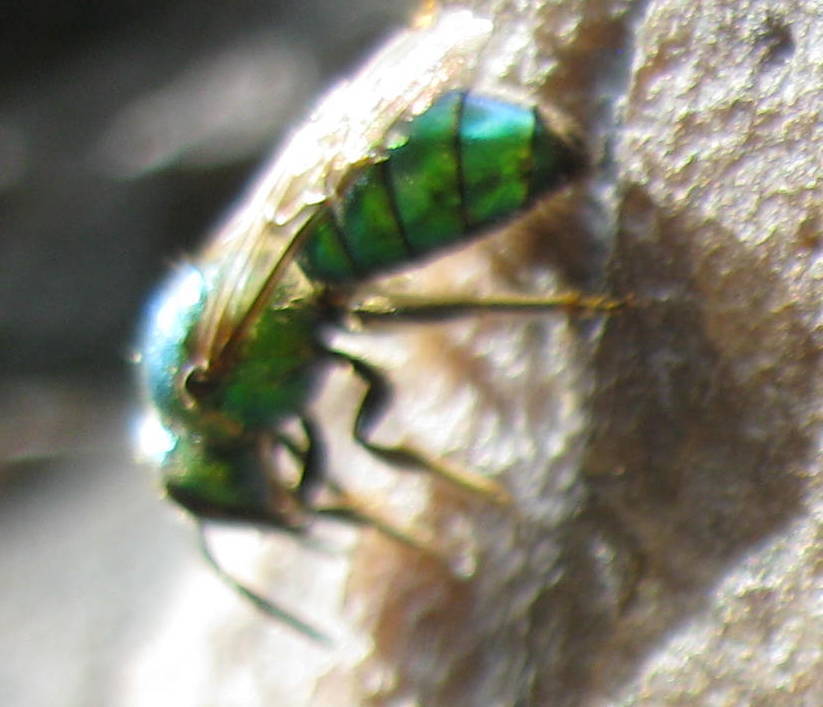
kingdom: Animalia
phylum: Arthropoda
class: Insecta
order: Hymenoptera
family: Halictidae
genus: Augochlora
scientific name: Augochlora pura
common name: Pure green sweat bee
